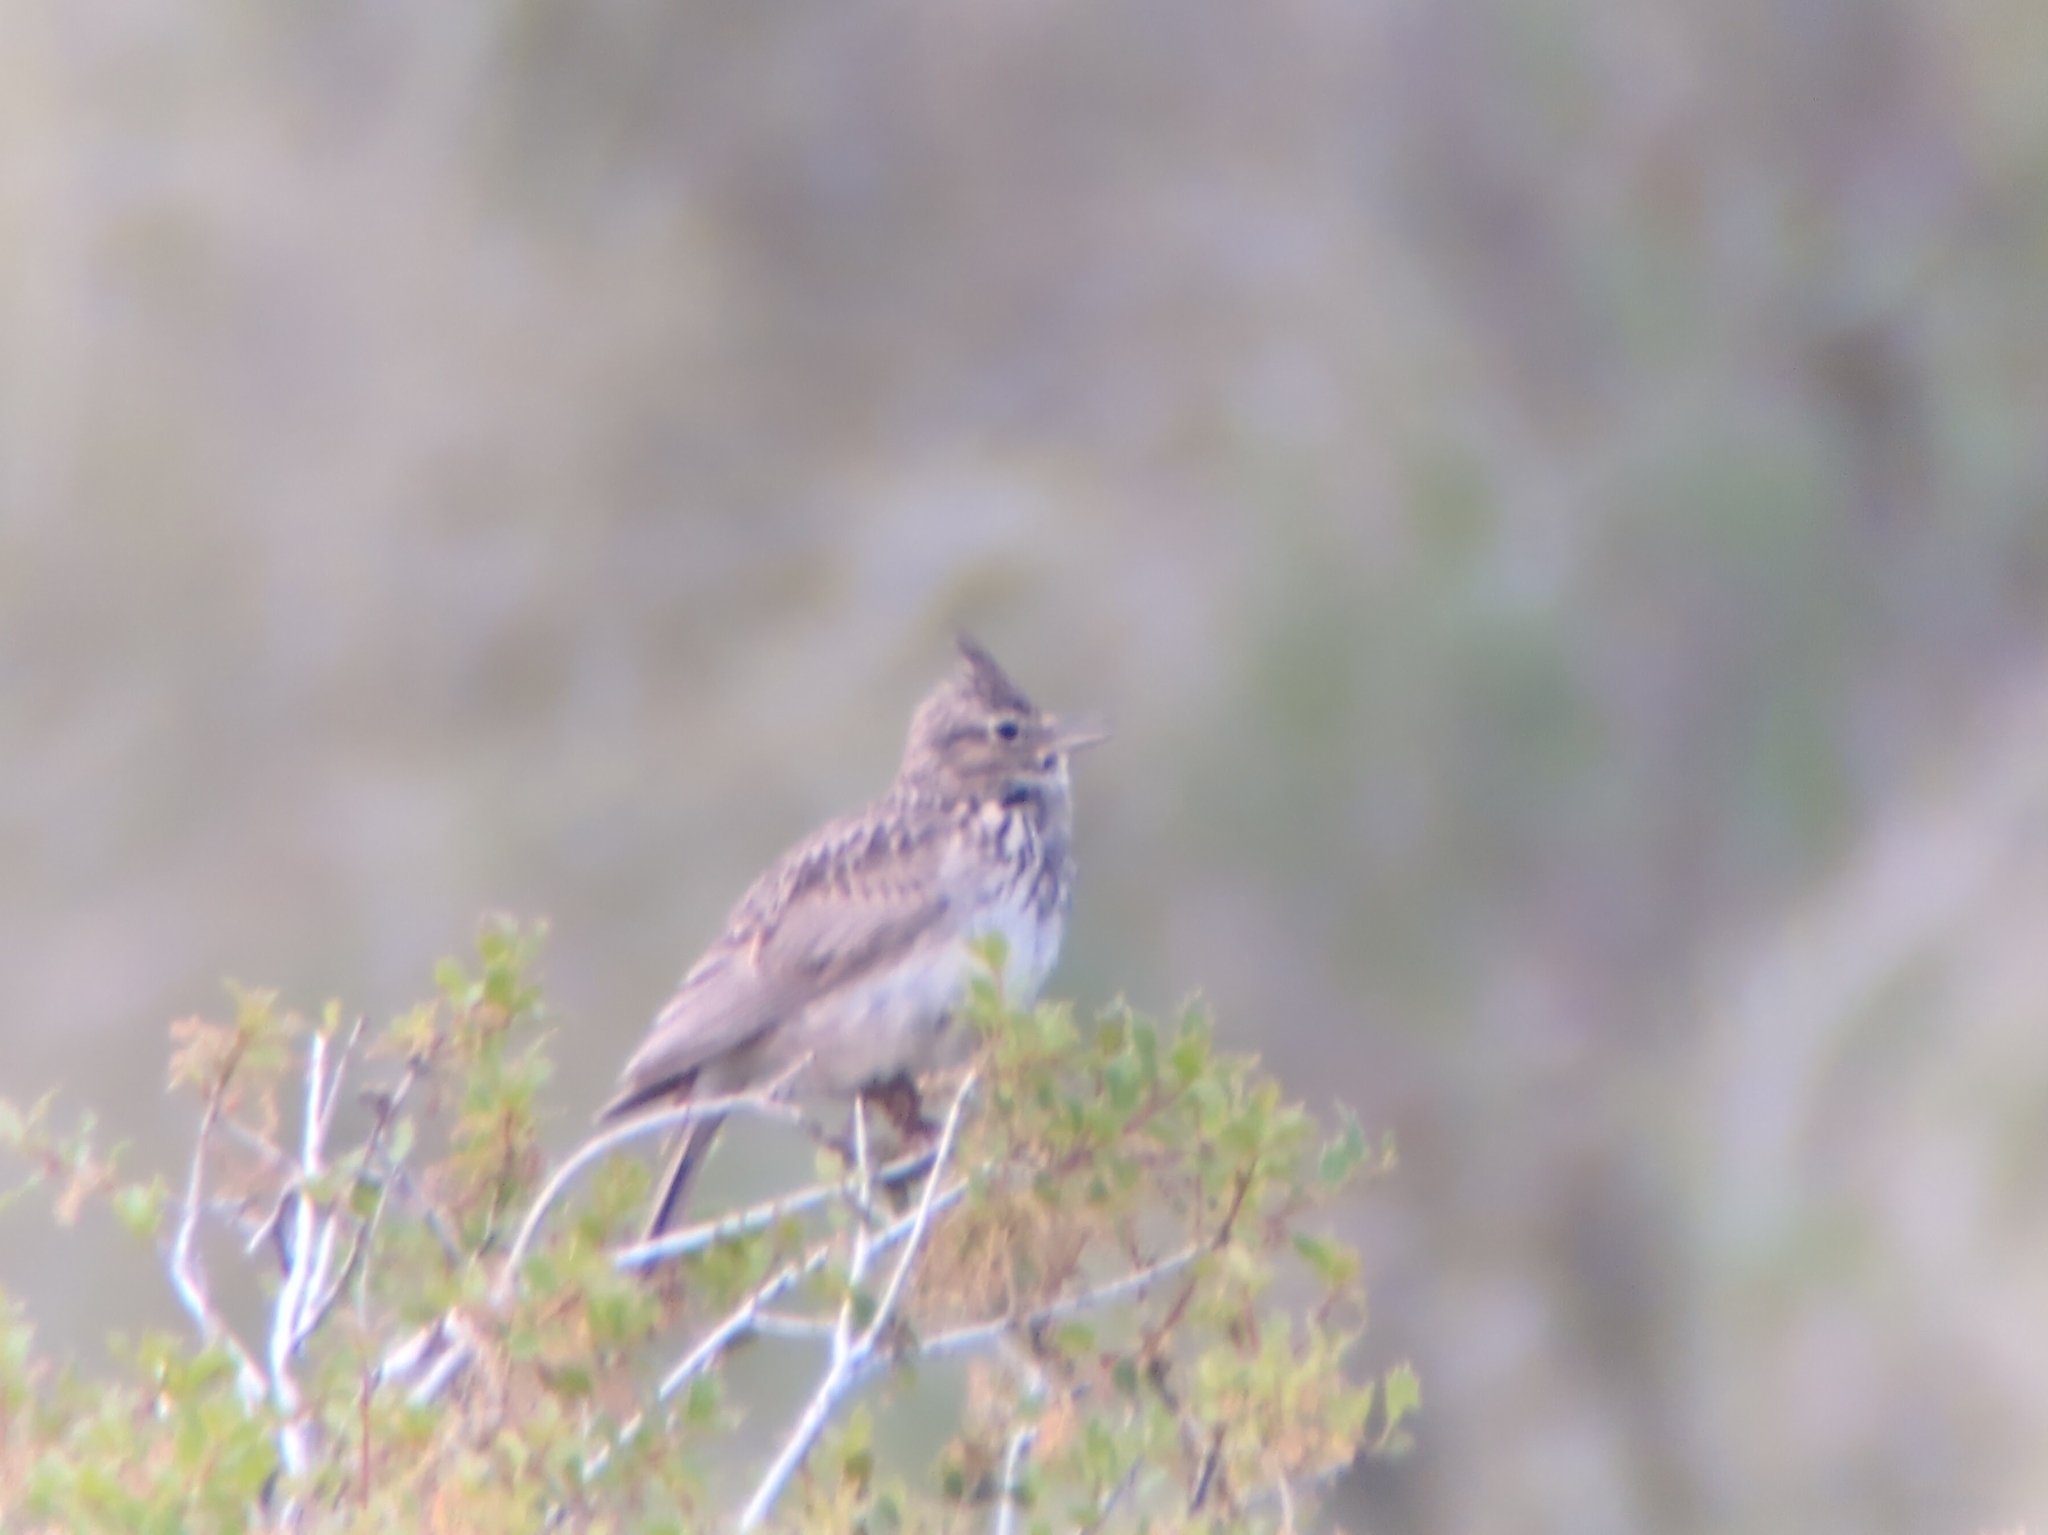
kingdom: Animalia
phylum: Chordata
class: Aves
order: Passeriformes
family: Alaudidae
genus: Galerida
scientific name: Galerida theklae
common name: Thekla lark
